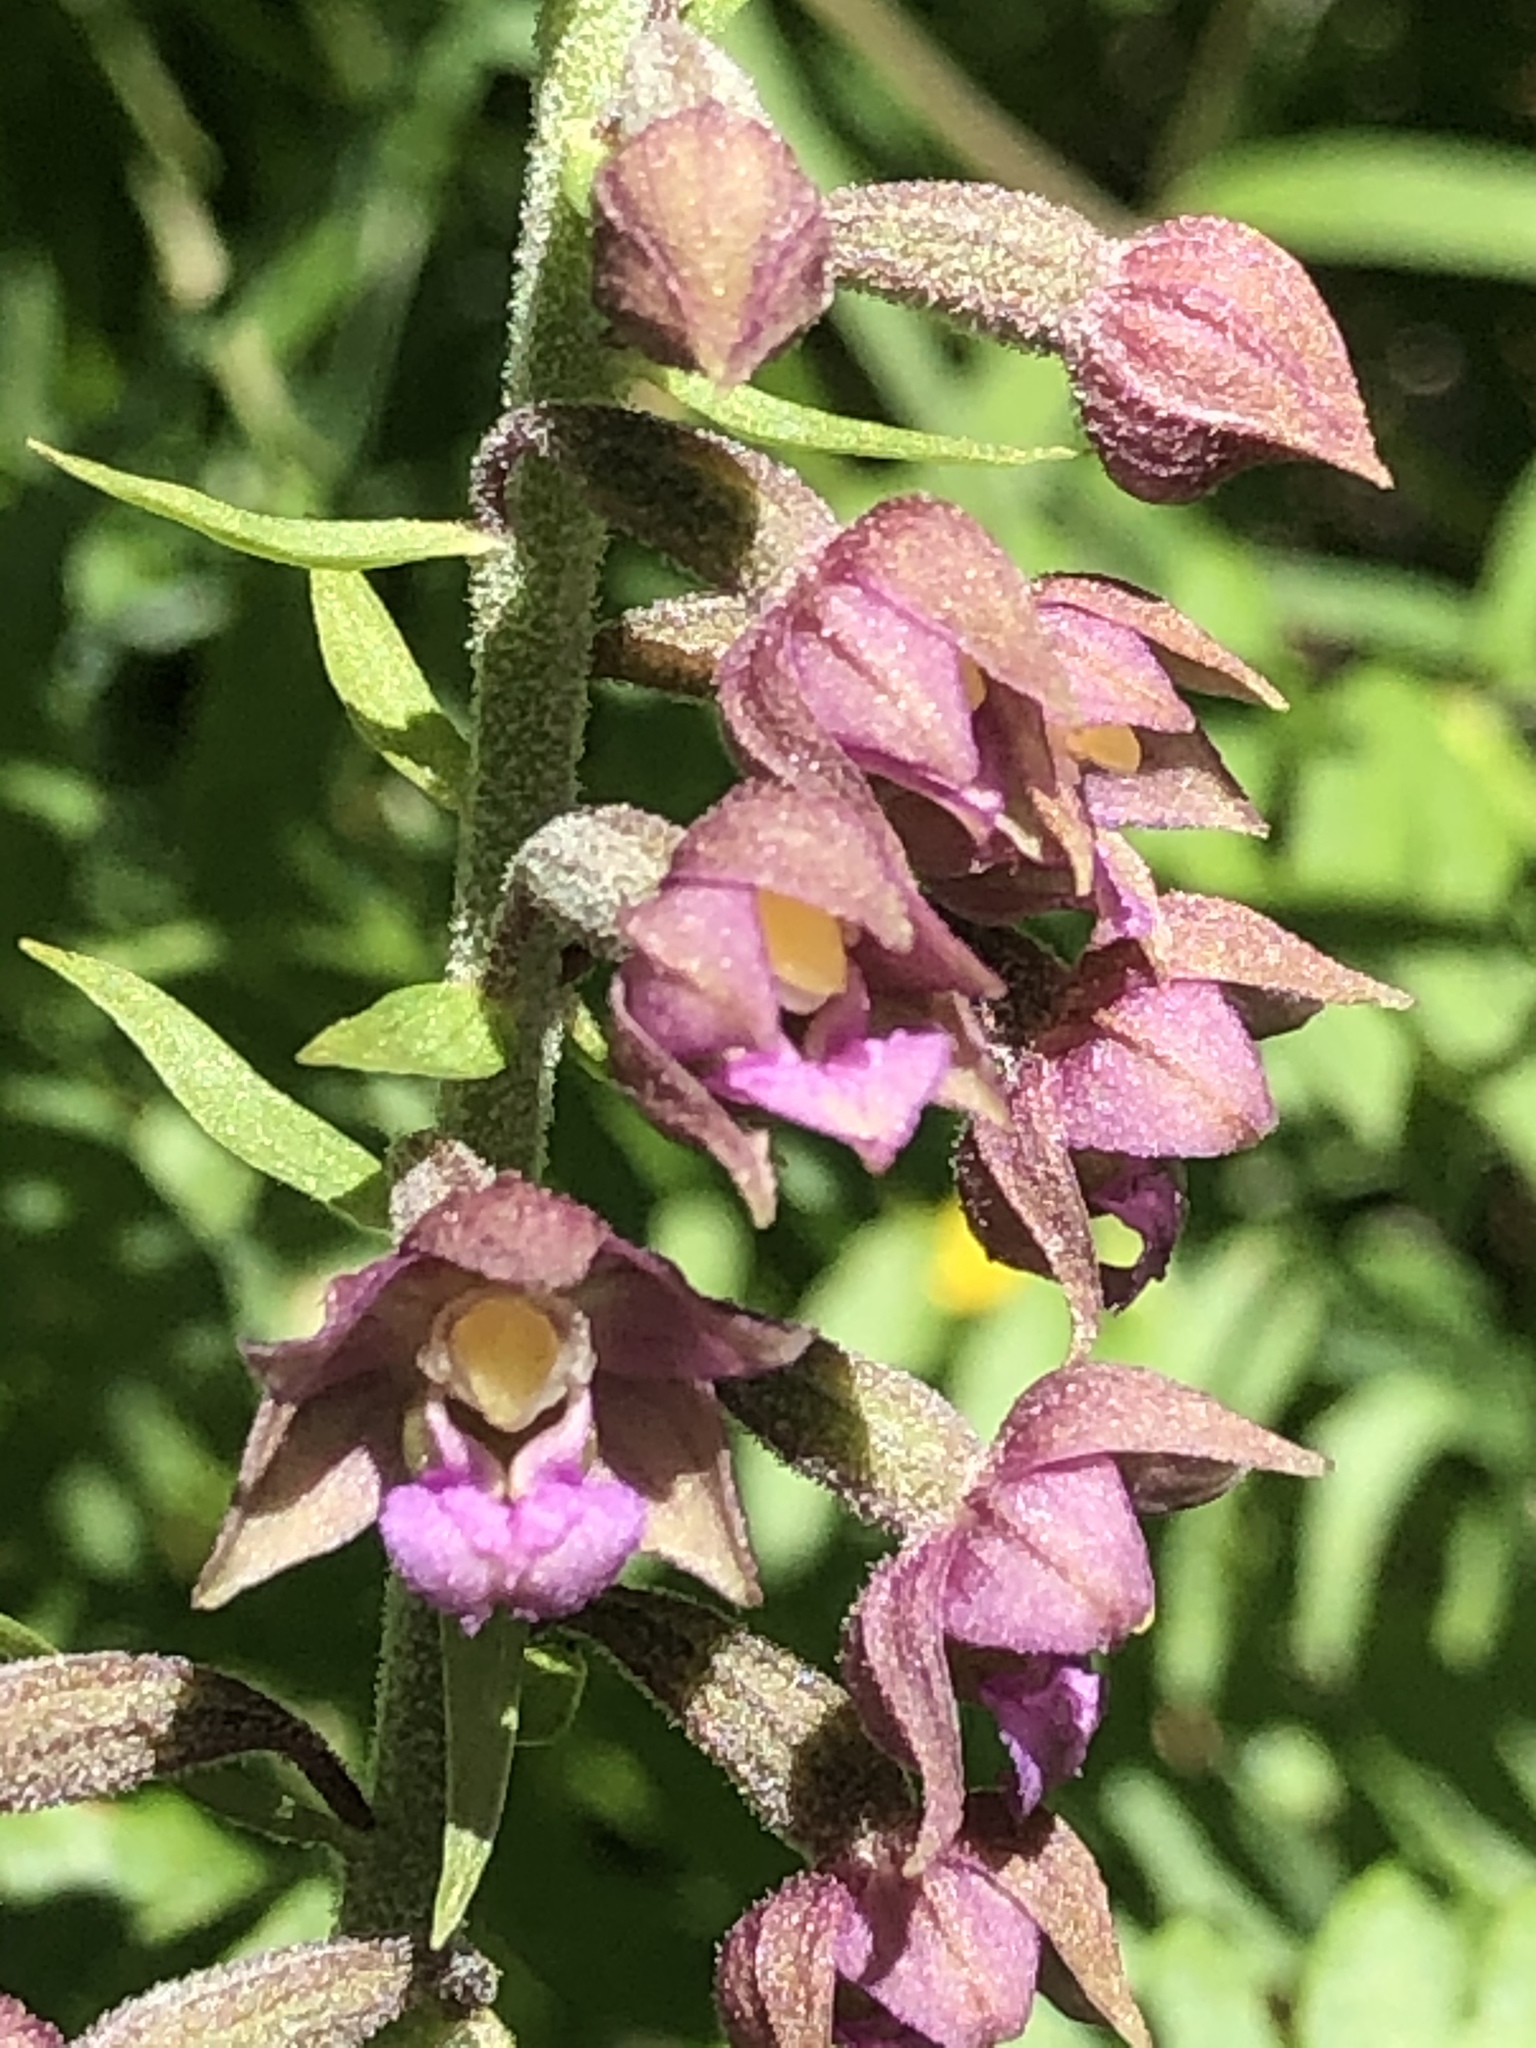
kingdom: Plantae
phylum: Tracheophyta
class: Liliopsida
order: Asparagales
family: Orchidaceae
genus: Epipactis
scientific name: Epipactis atrorubens
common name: Dark-red helleborine
